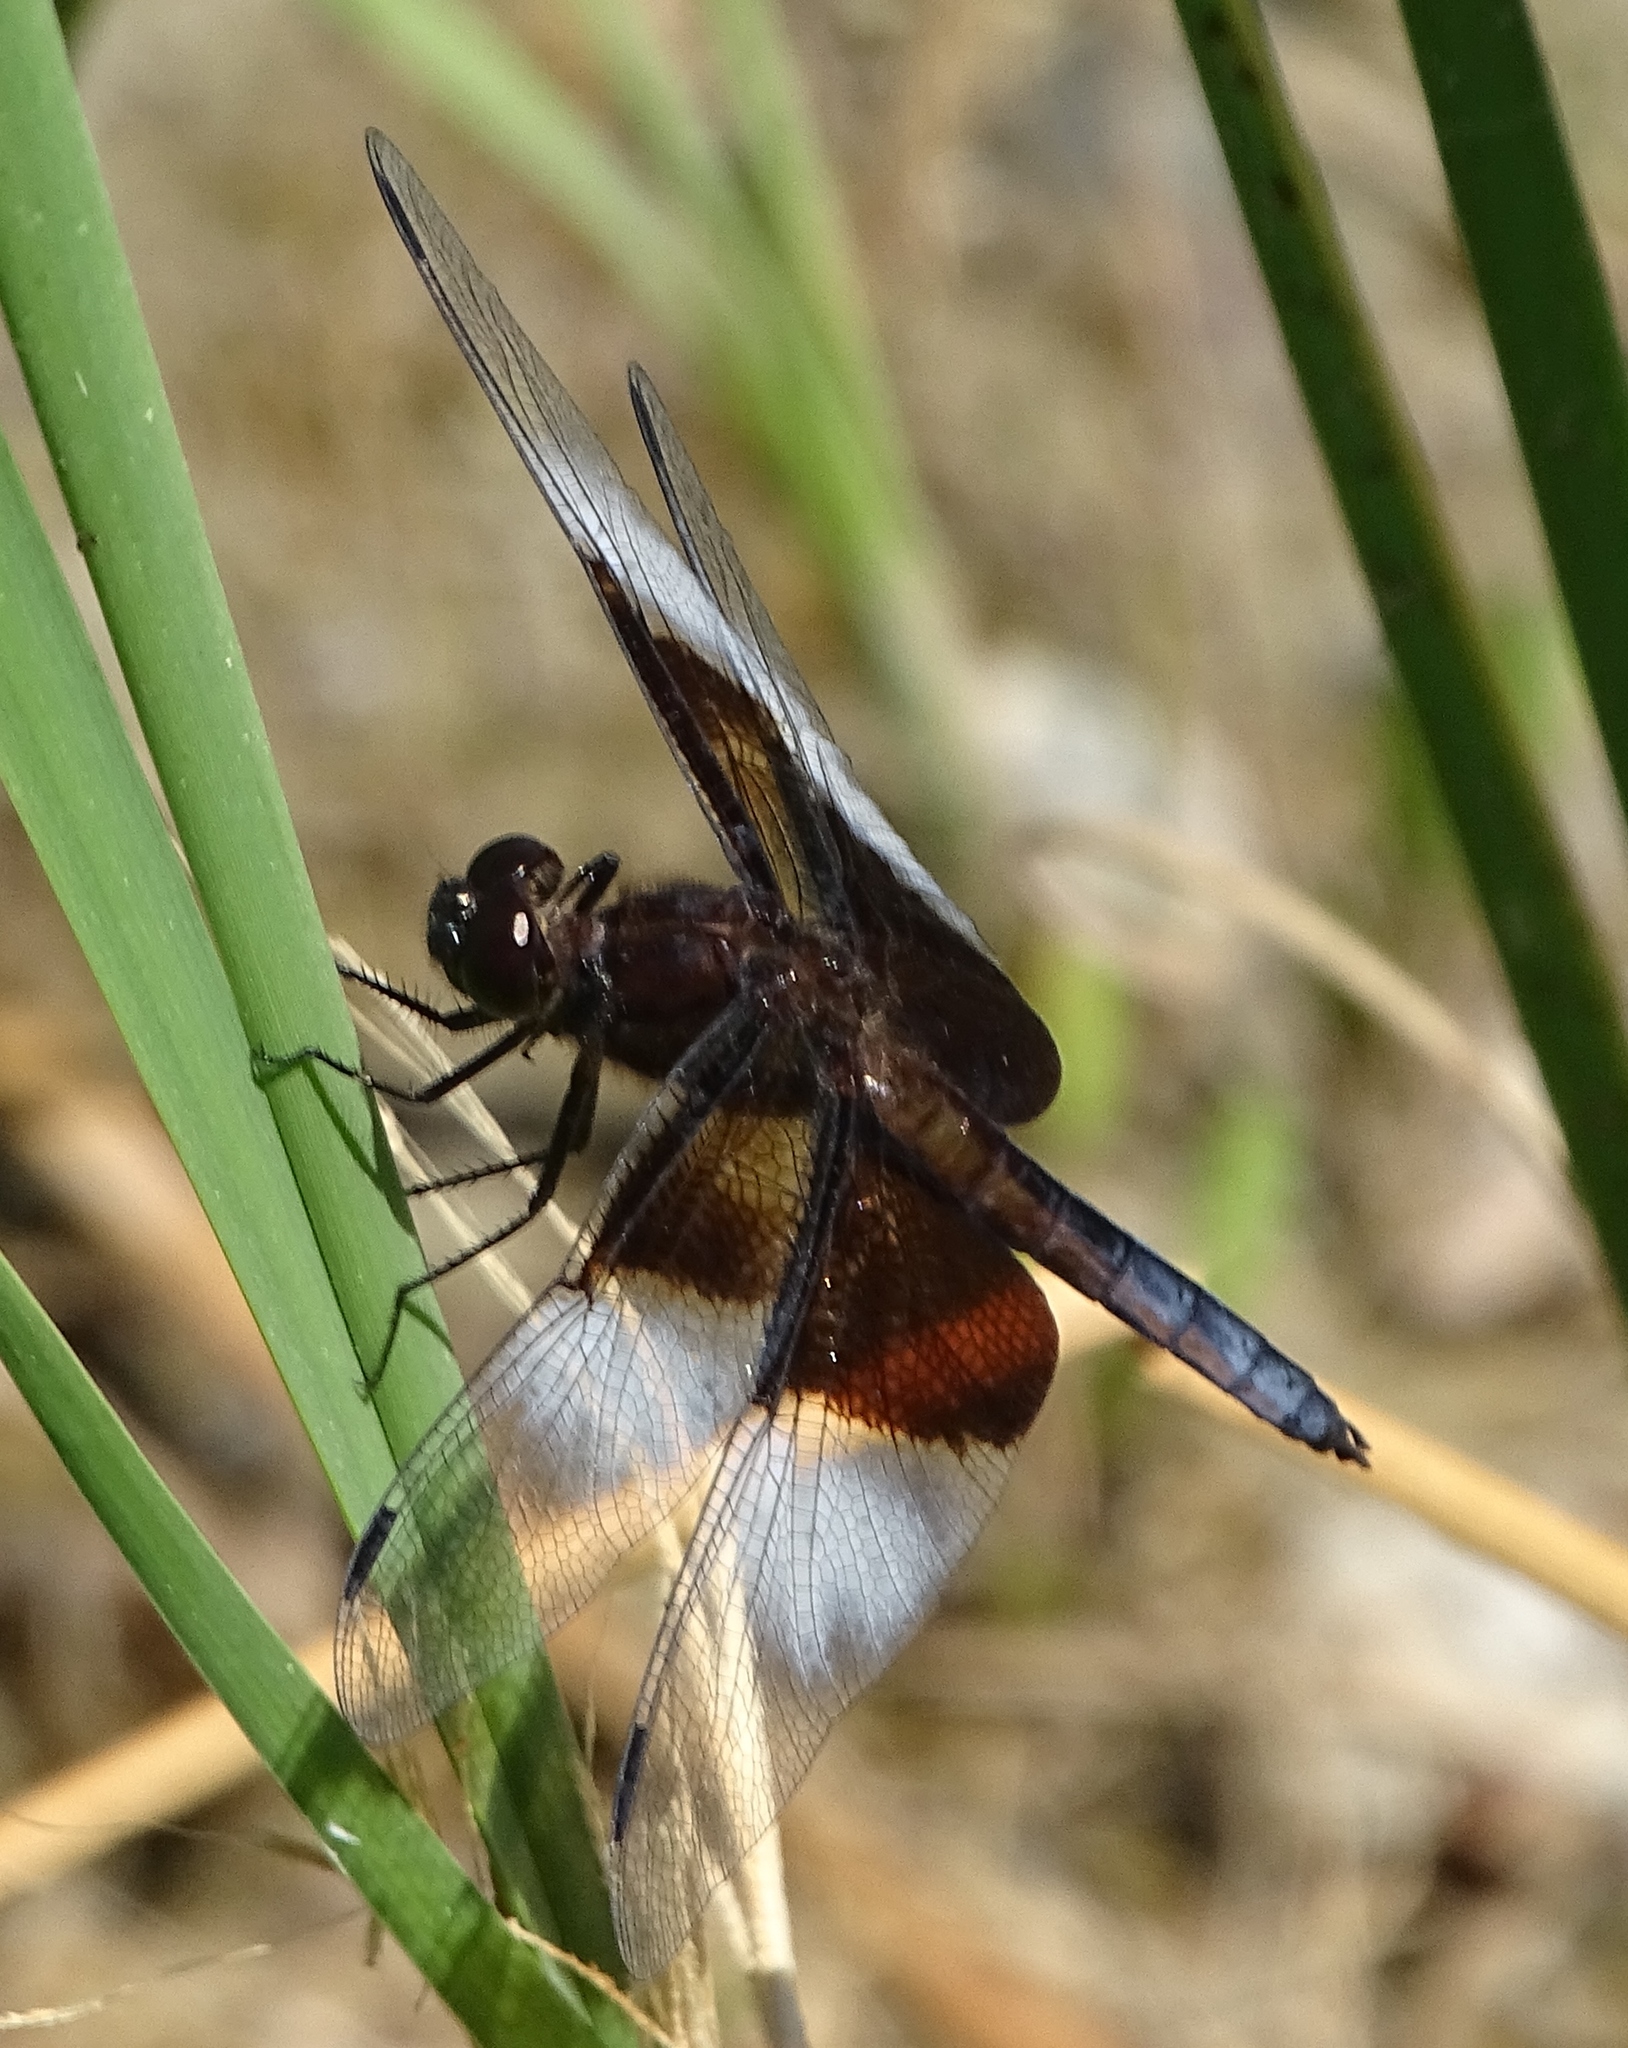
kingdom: Animalia
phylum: Arthropoda
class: Insecta
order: Odonata
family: Libellulidae
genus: Libellula
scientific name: Libellula luctuosa
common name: Widow skimmer
